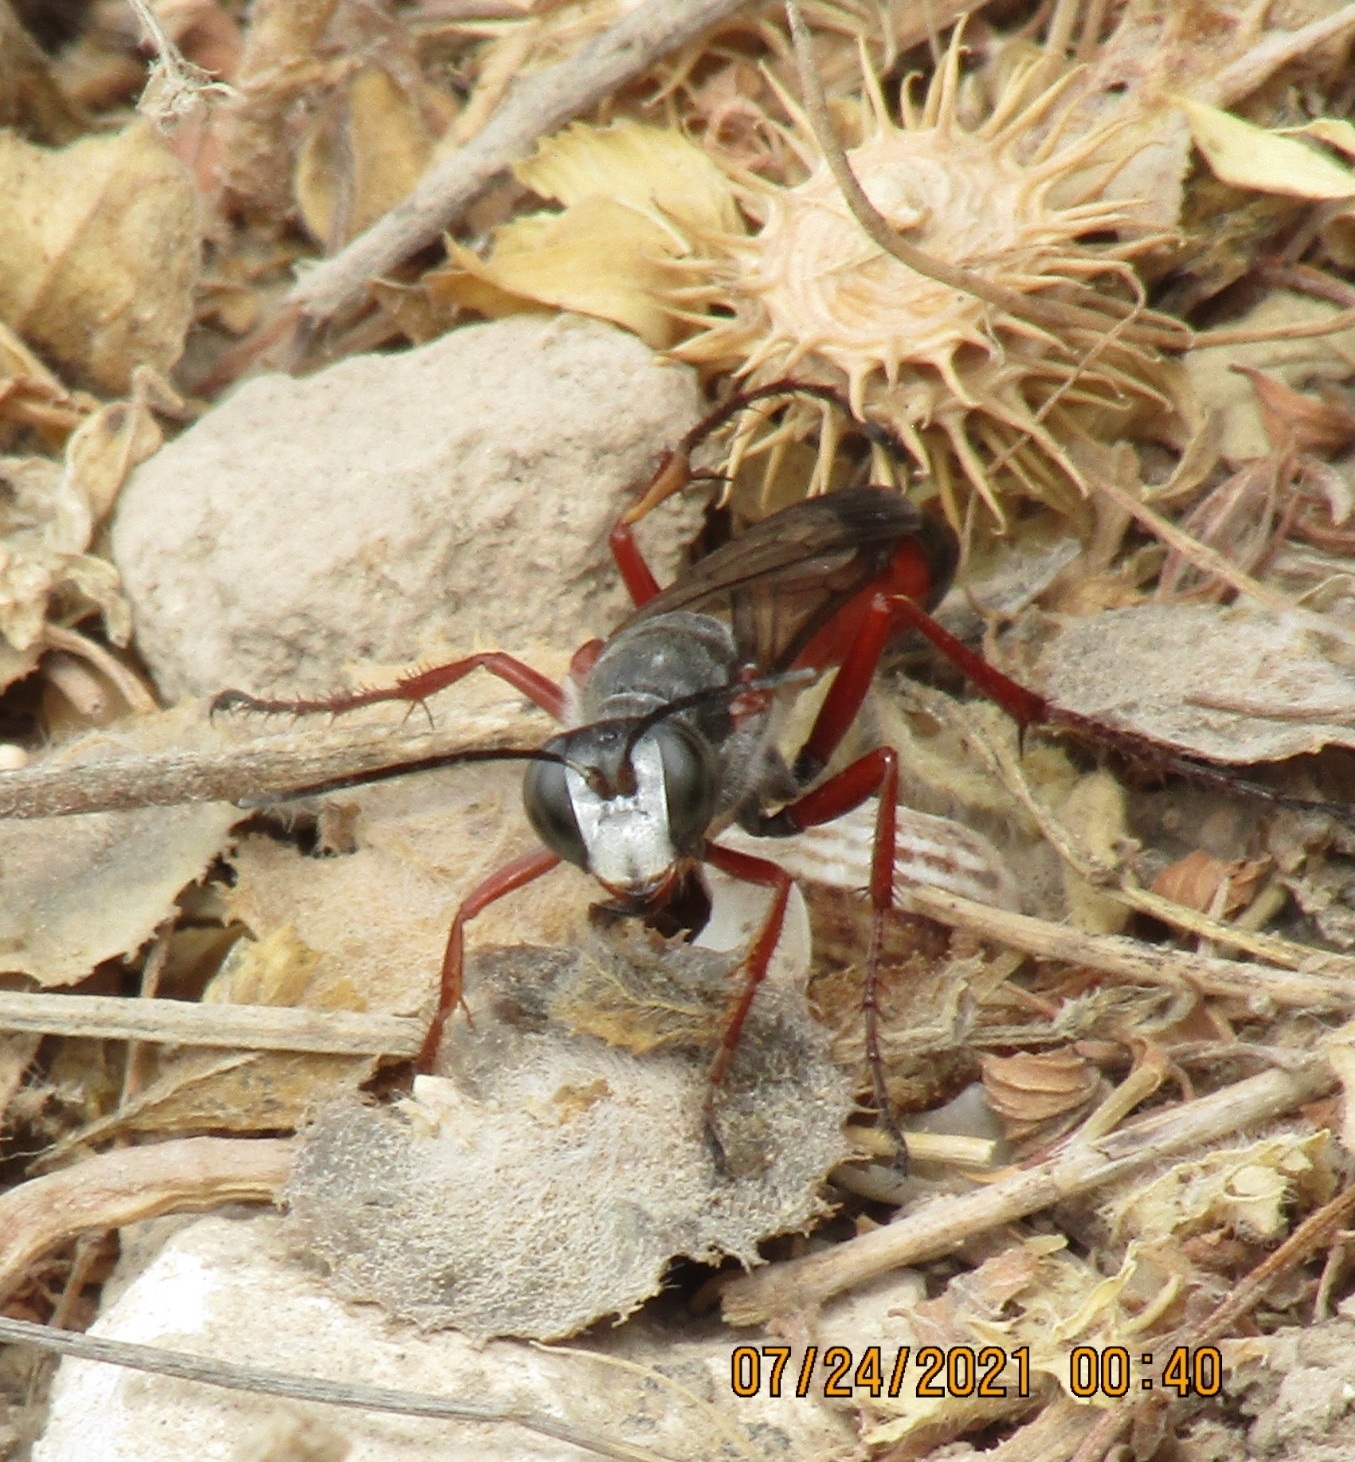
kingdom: Animalia
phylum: Arthropoda
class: Insecta
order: Hymenoptera
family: Sphecidae
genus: Sphex
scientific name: Sphex pruinosus
